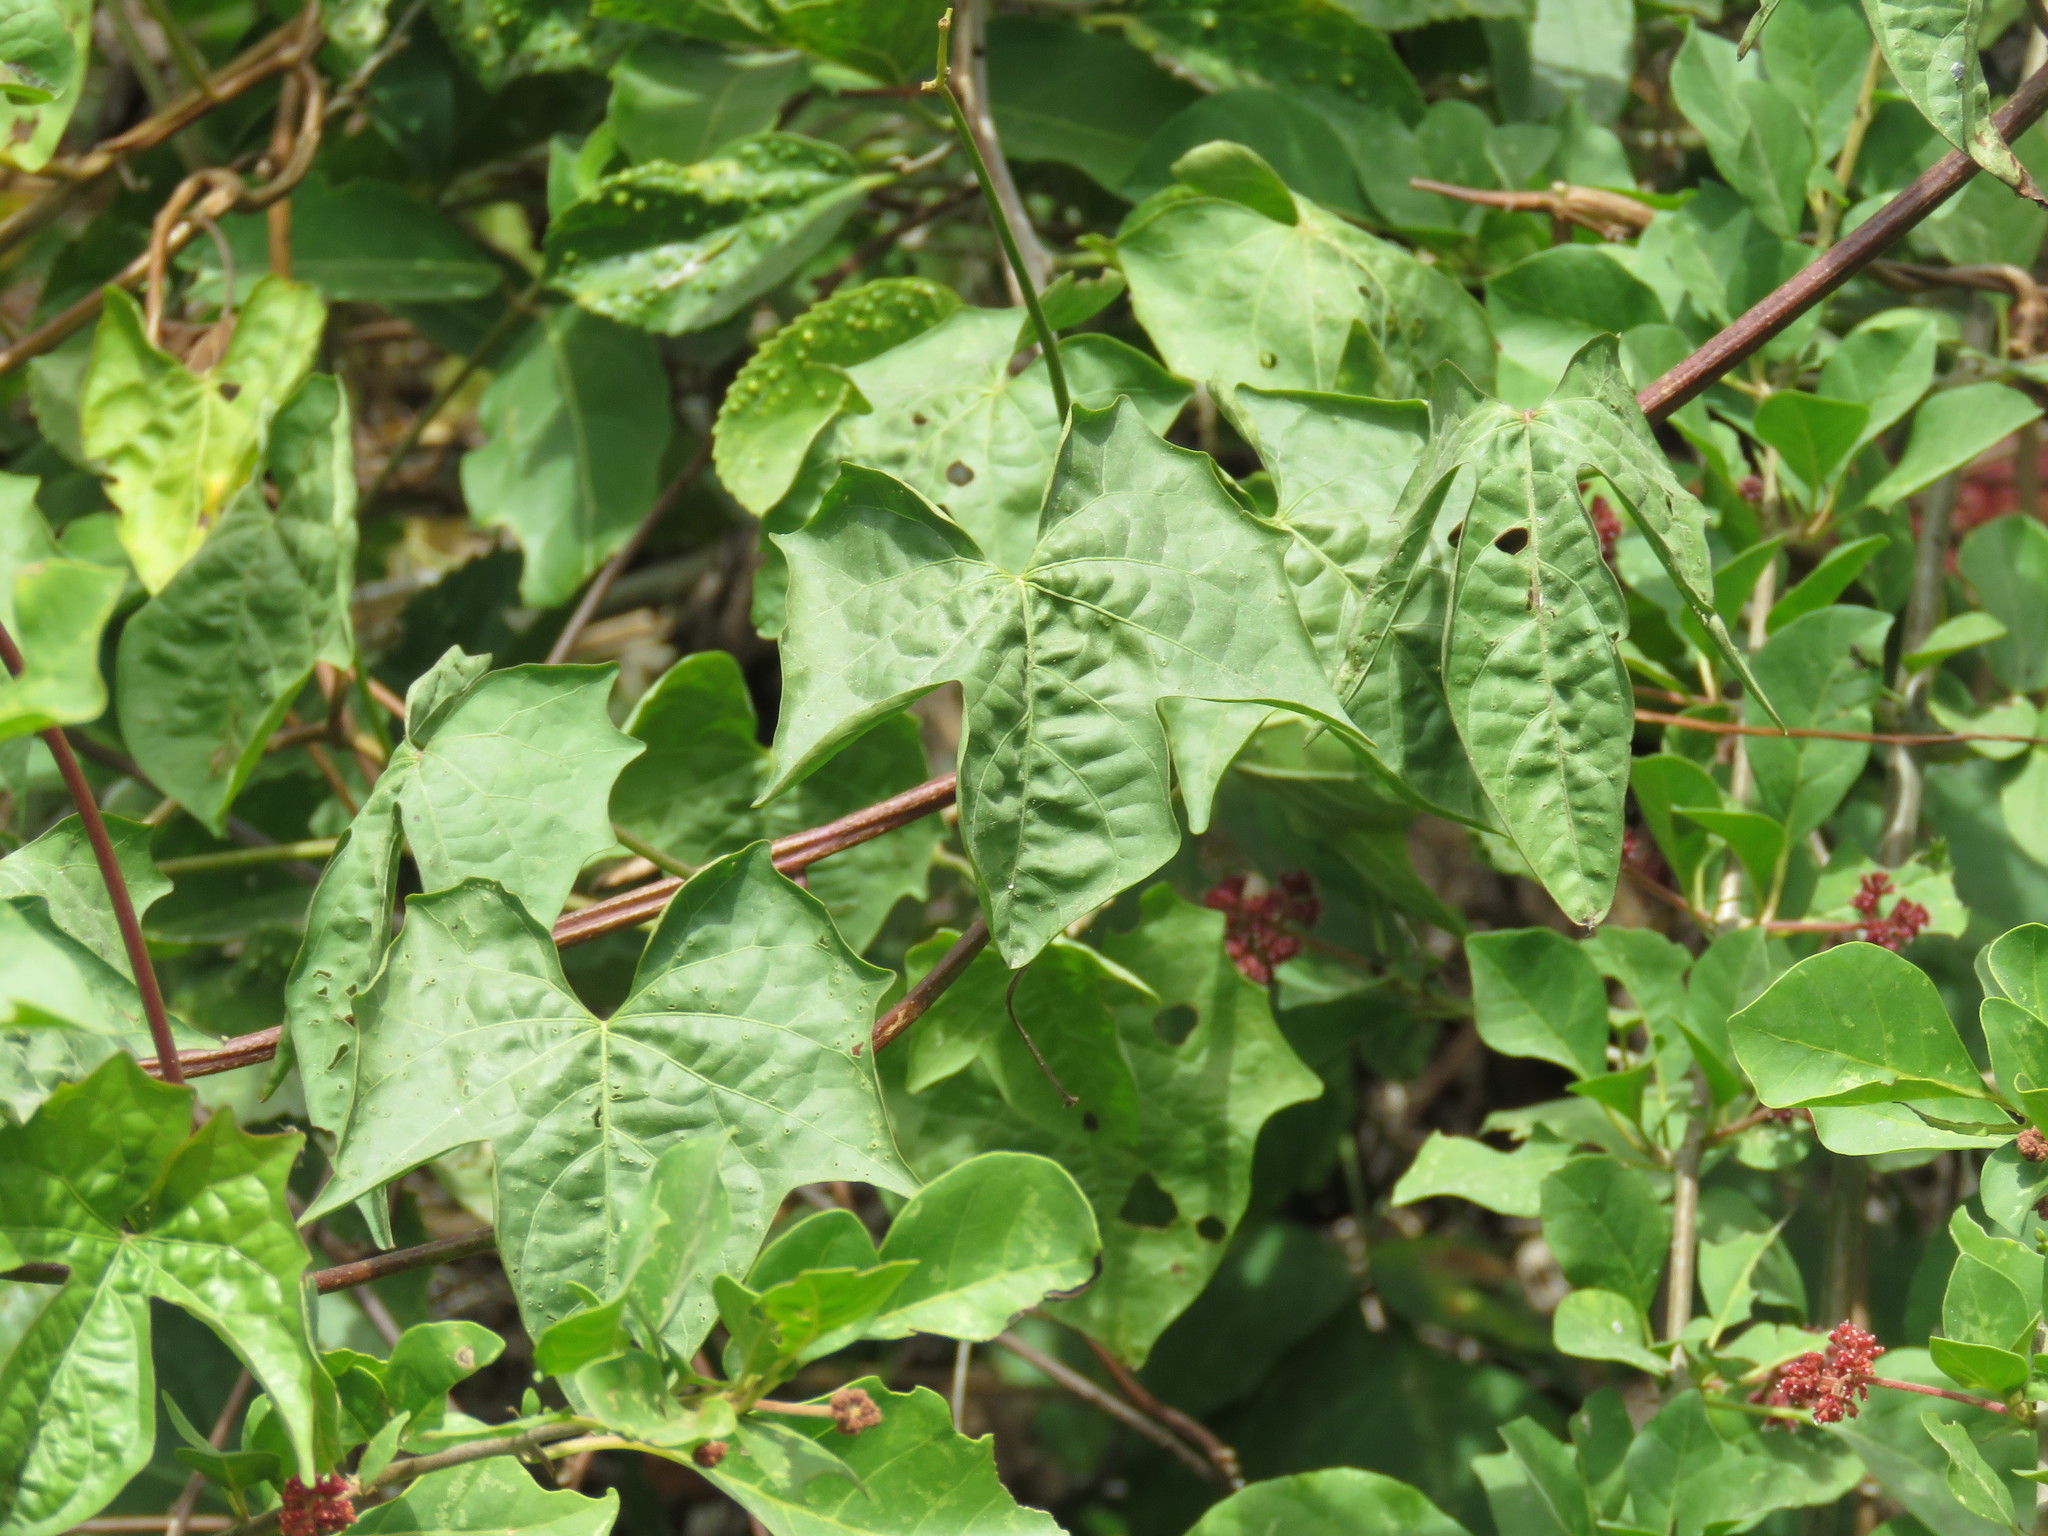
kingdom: Plantae
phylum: Tracheophyta
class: Magnoliopsida
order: Solanales
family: Convolvulaceae
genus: Ipomoea
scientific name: Ipomoea neei
